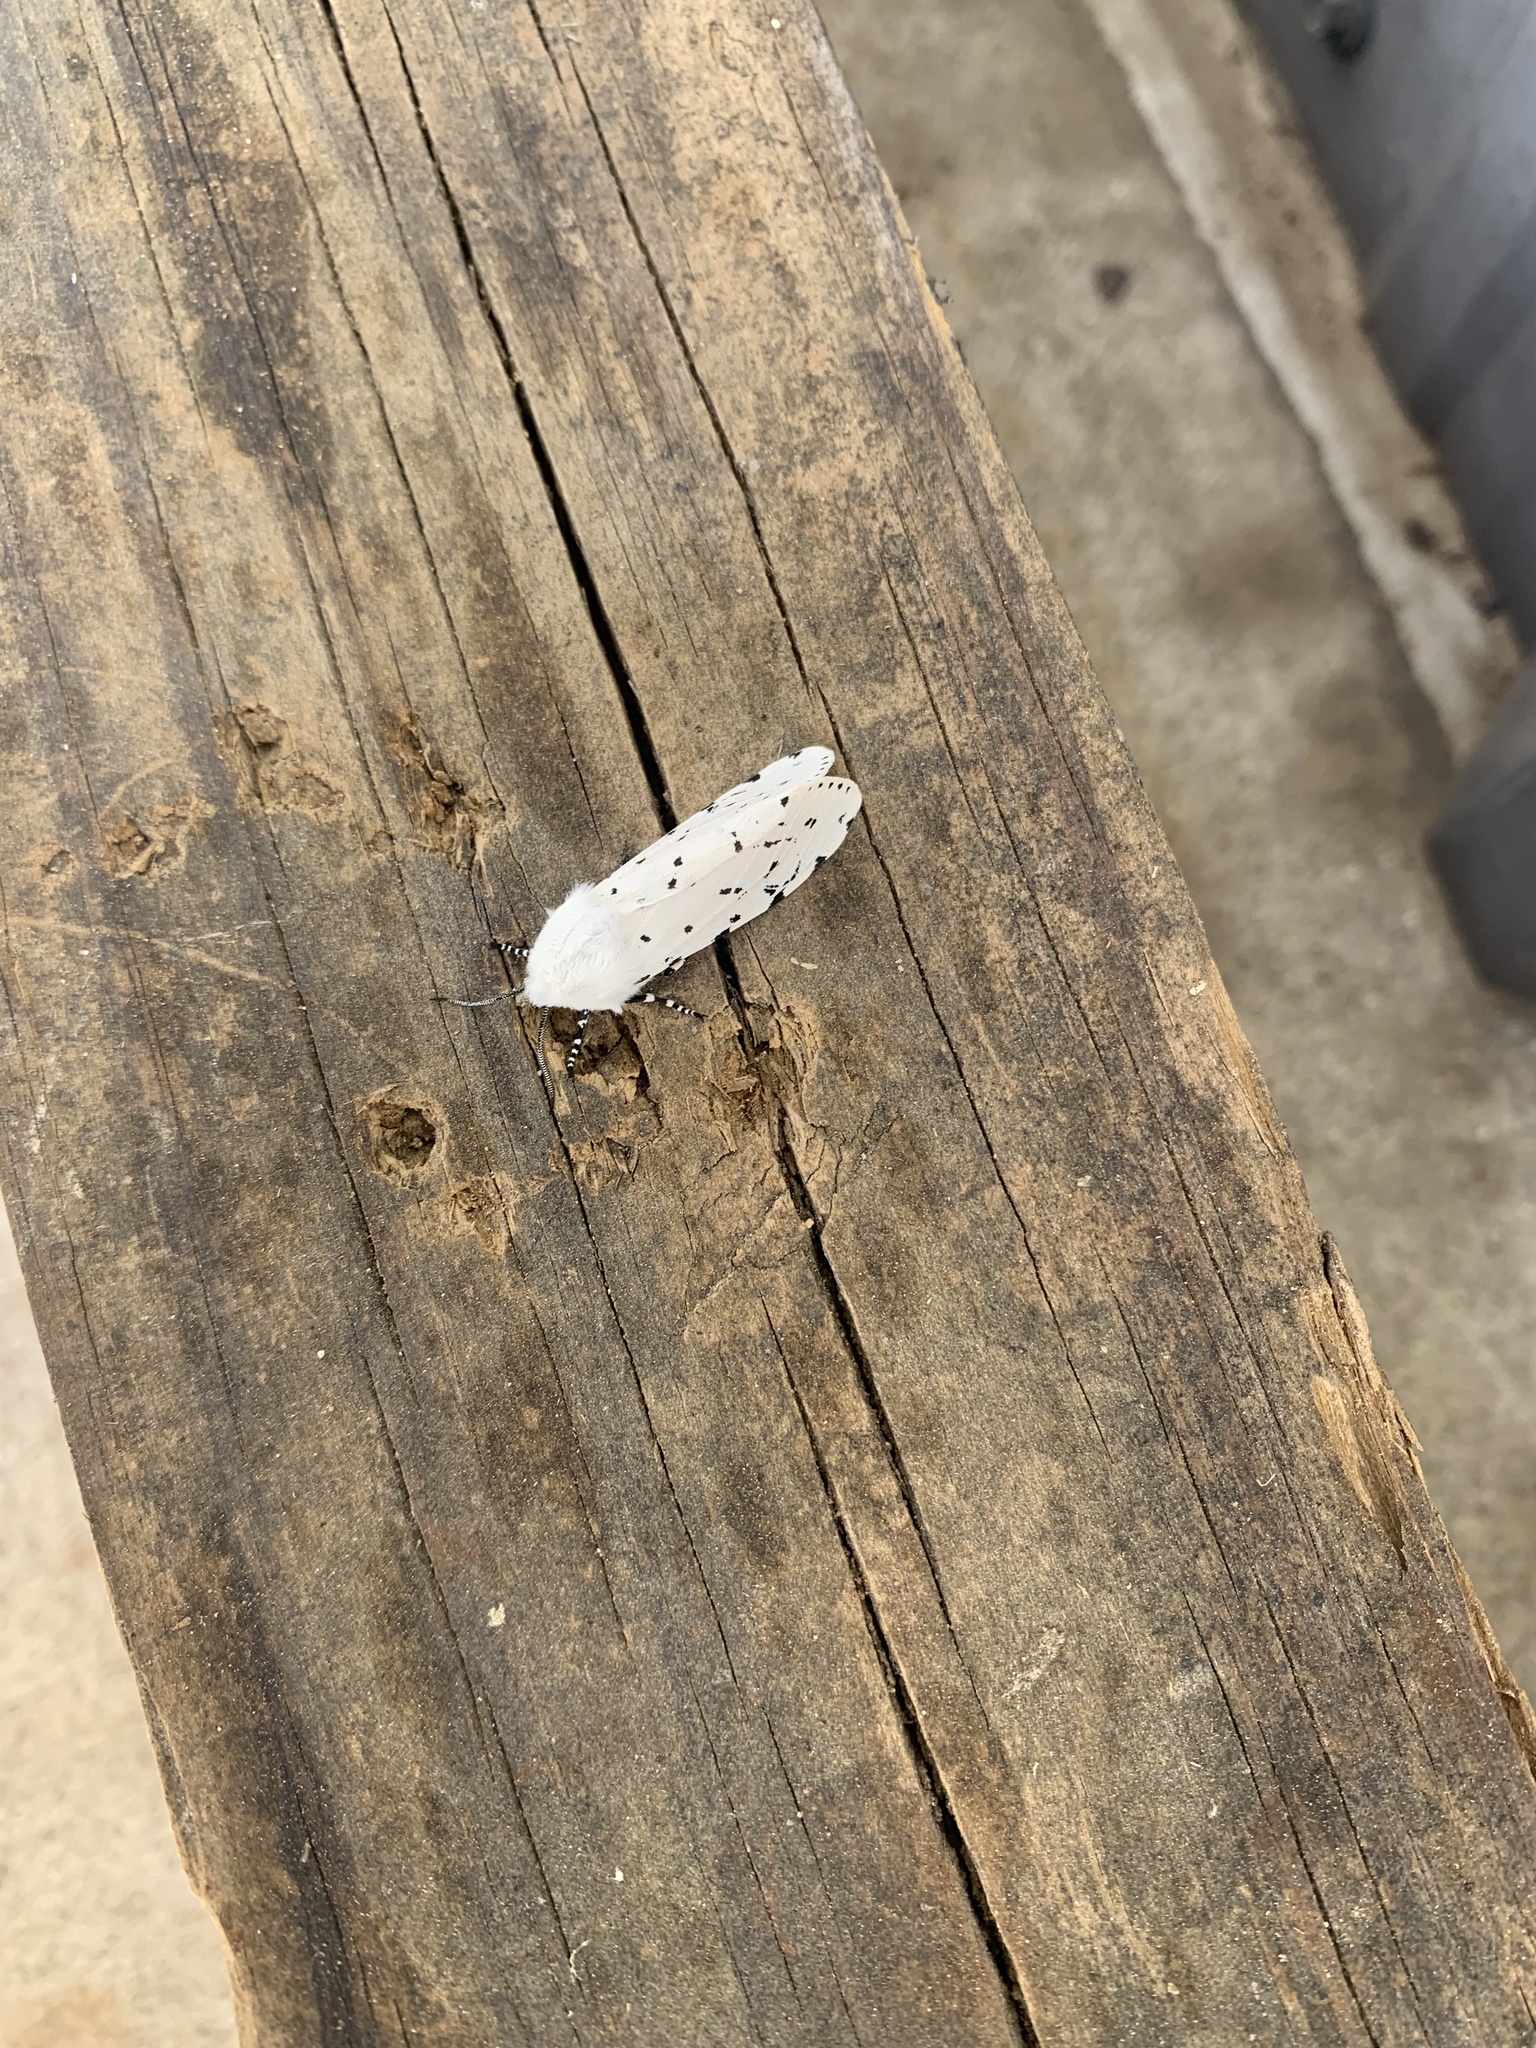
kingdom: Animalia
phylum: Arthropoda
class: Insecta
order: Lepidoptera
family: Erebidae
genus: Estigmene
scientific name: Estigmene acrea
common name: Salt marsh moth
